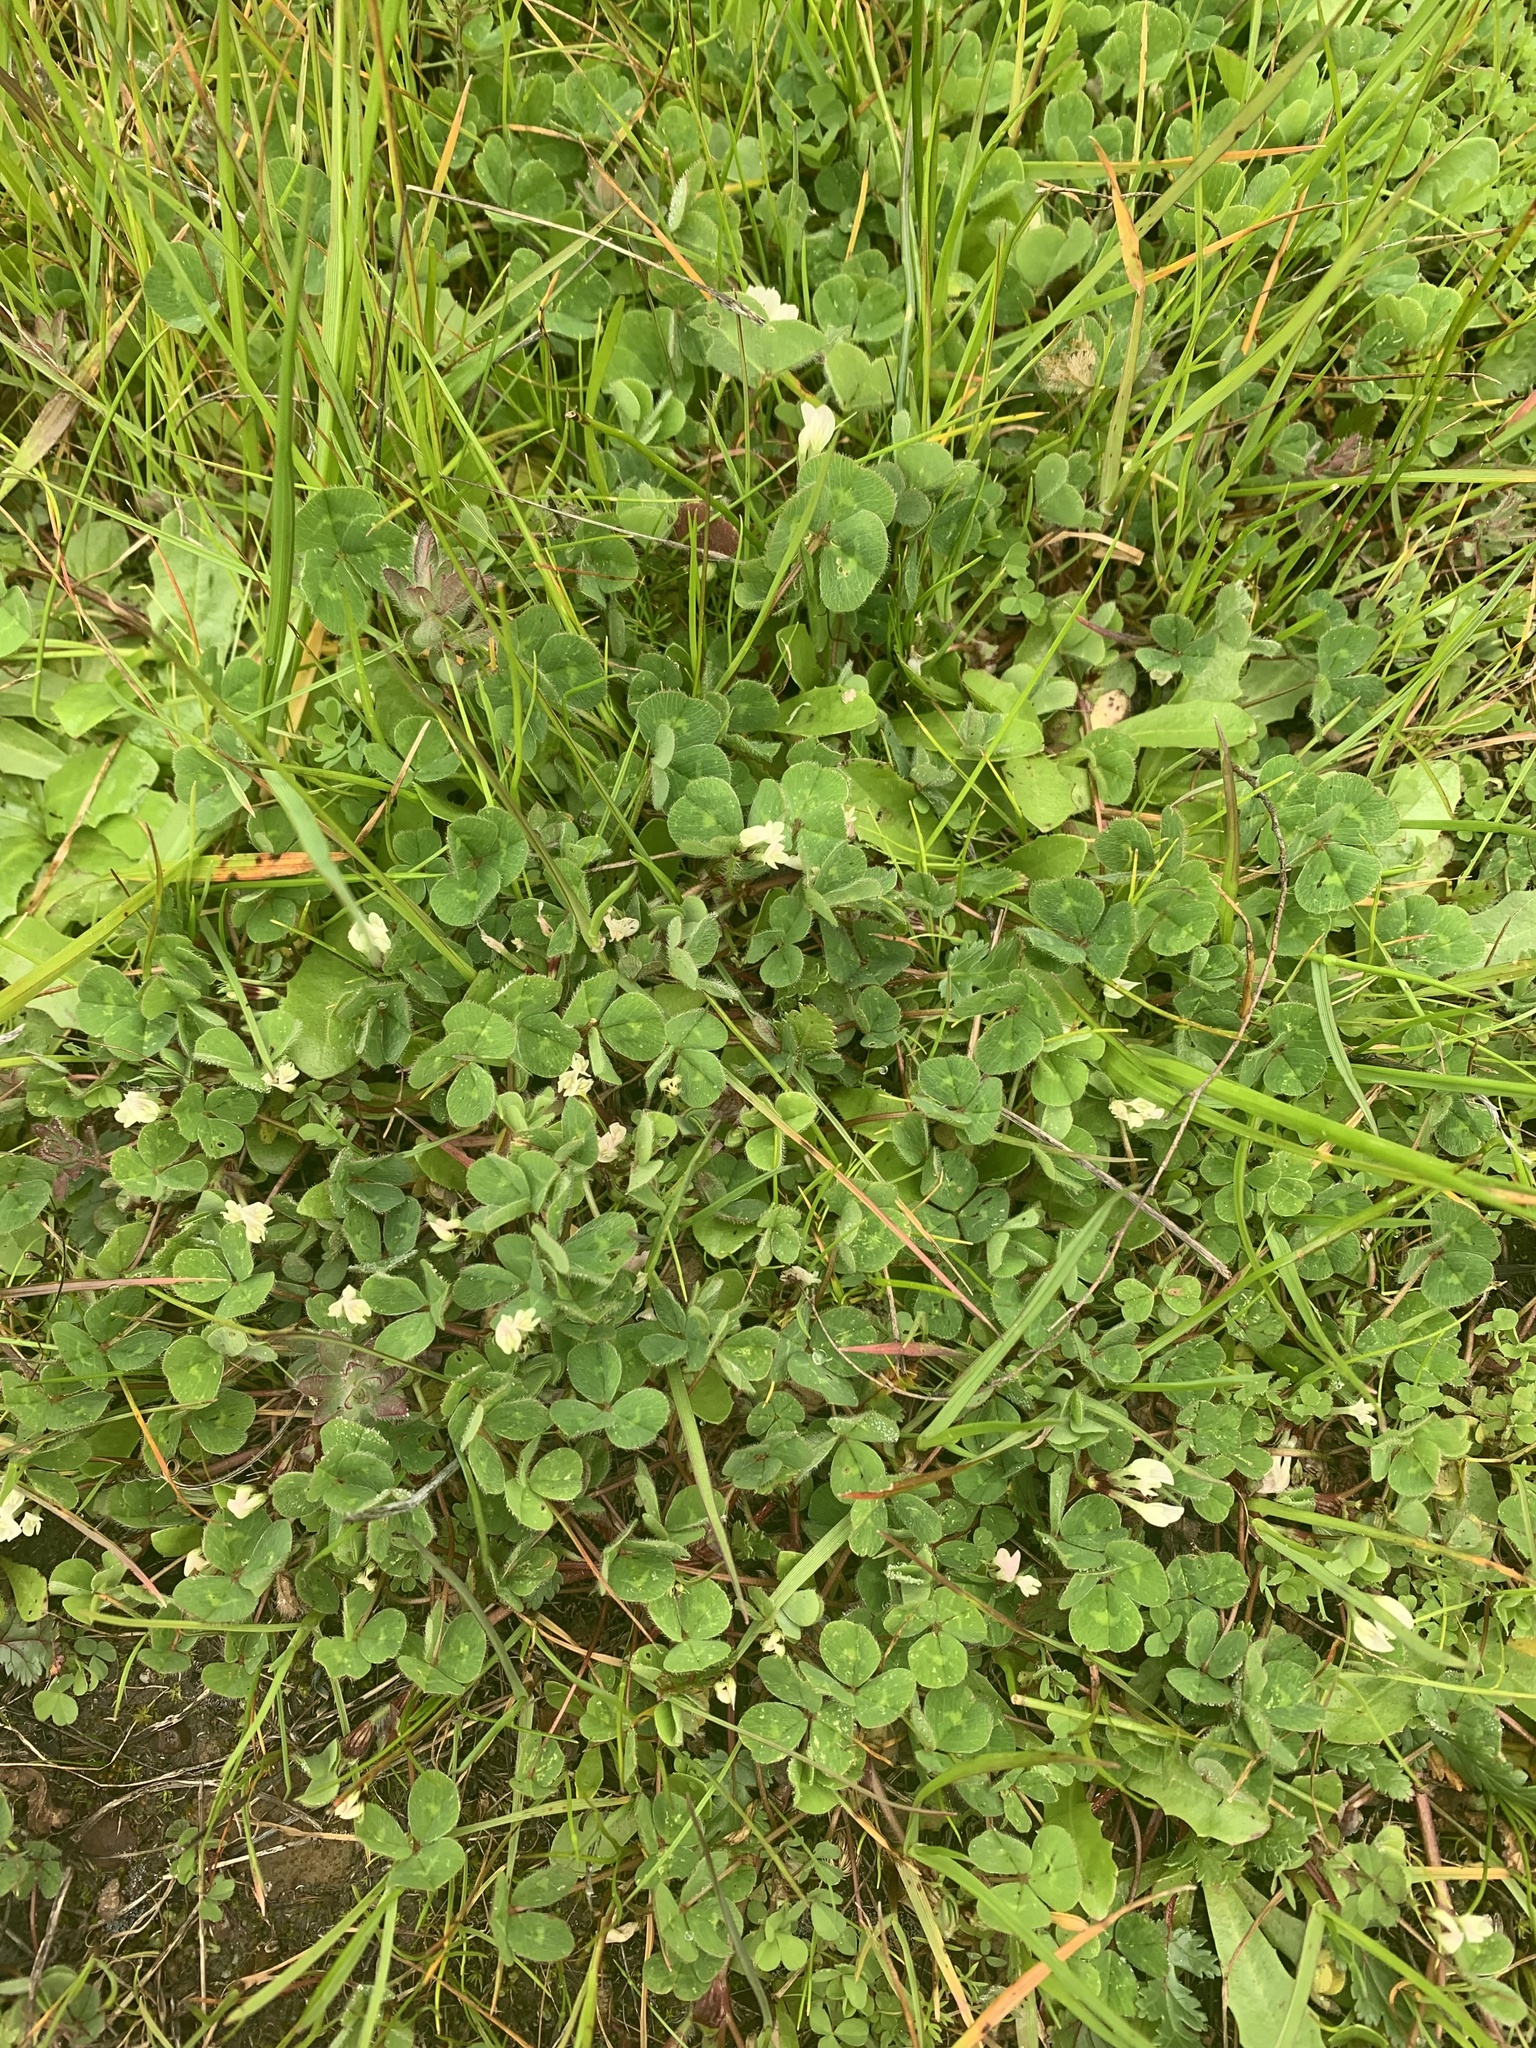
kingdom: Plantae
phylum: Tracheophyta
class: Magnoliopsida
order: Fabales
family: Fabaceae
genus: Trifolium
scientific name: Trifolium subterraneum
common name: Subterranean clover
